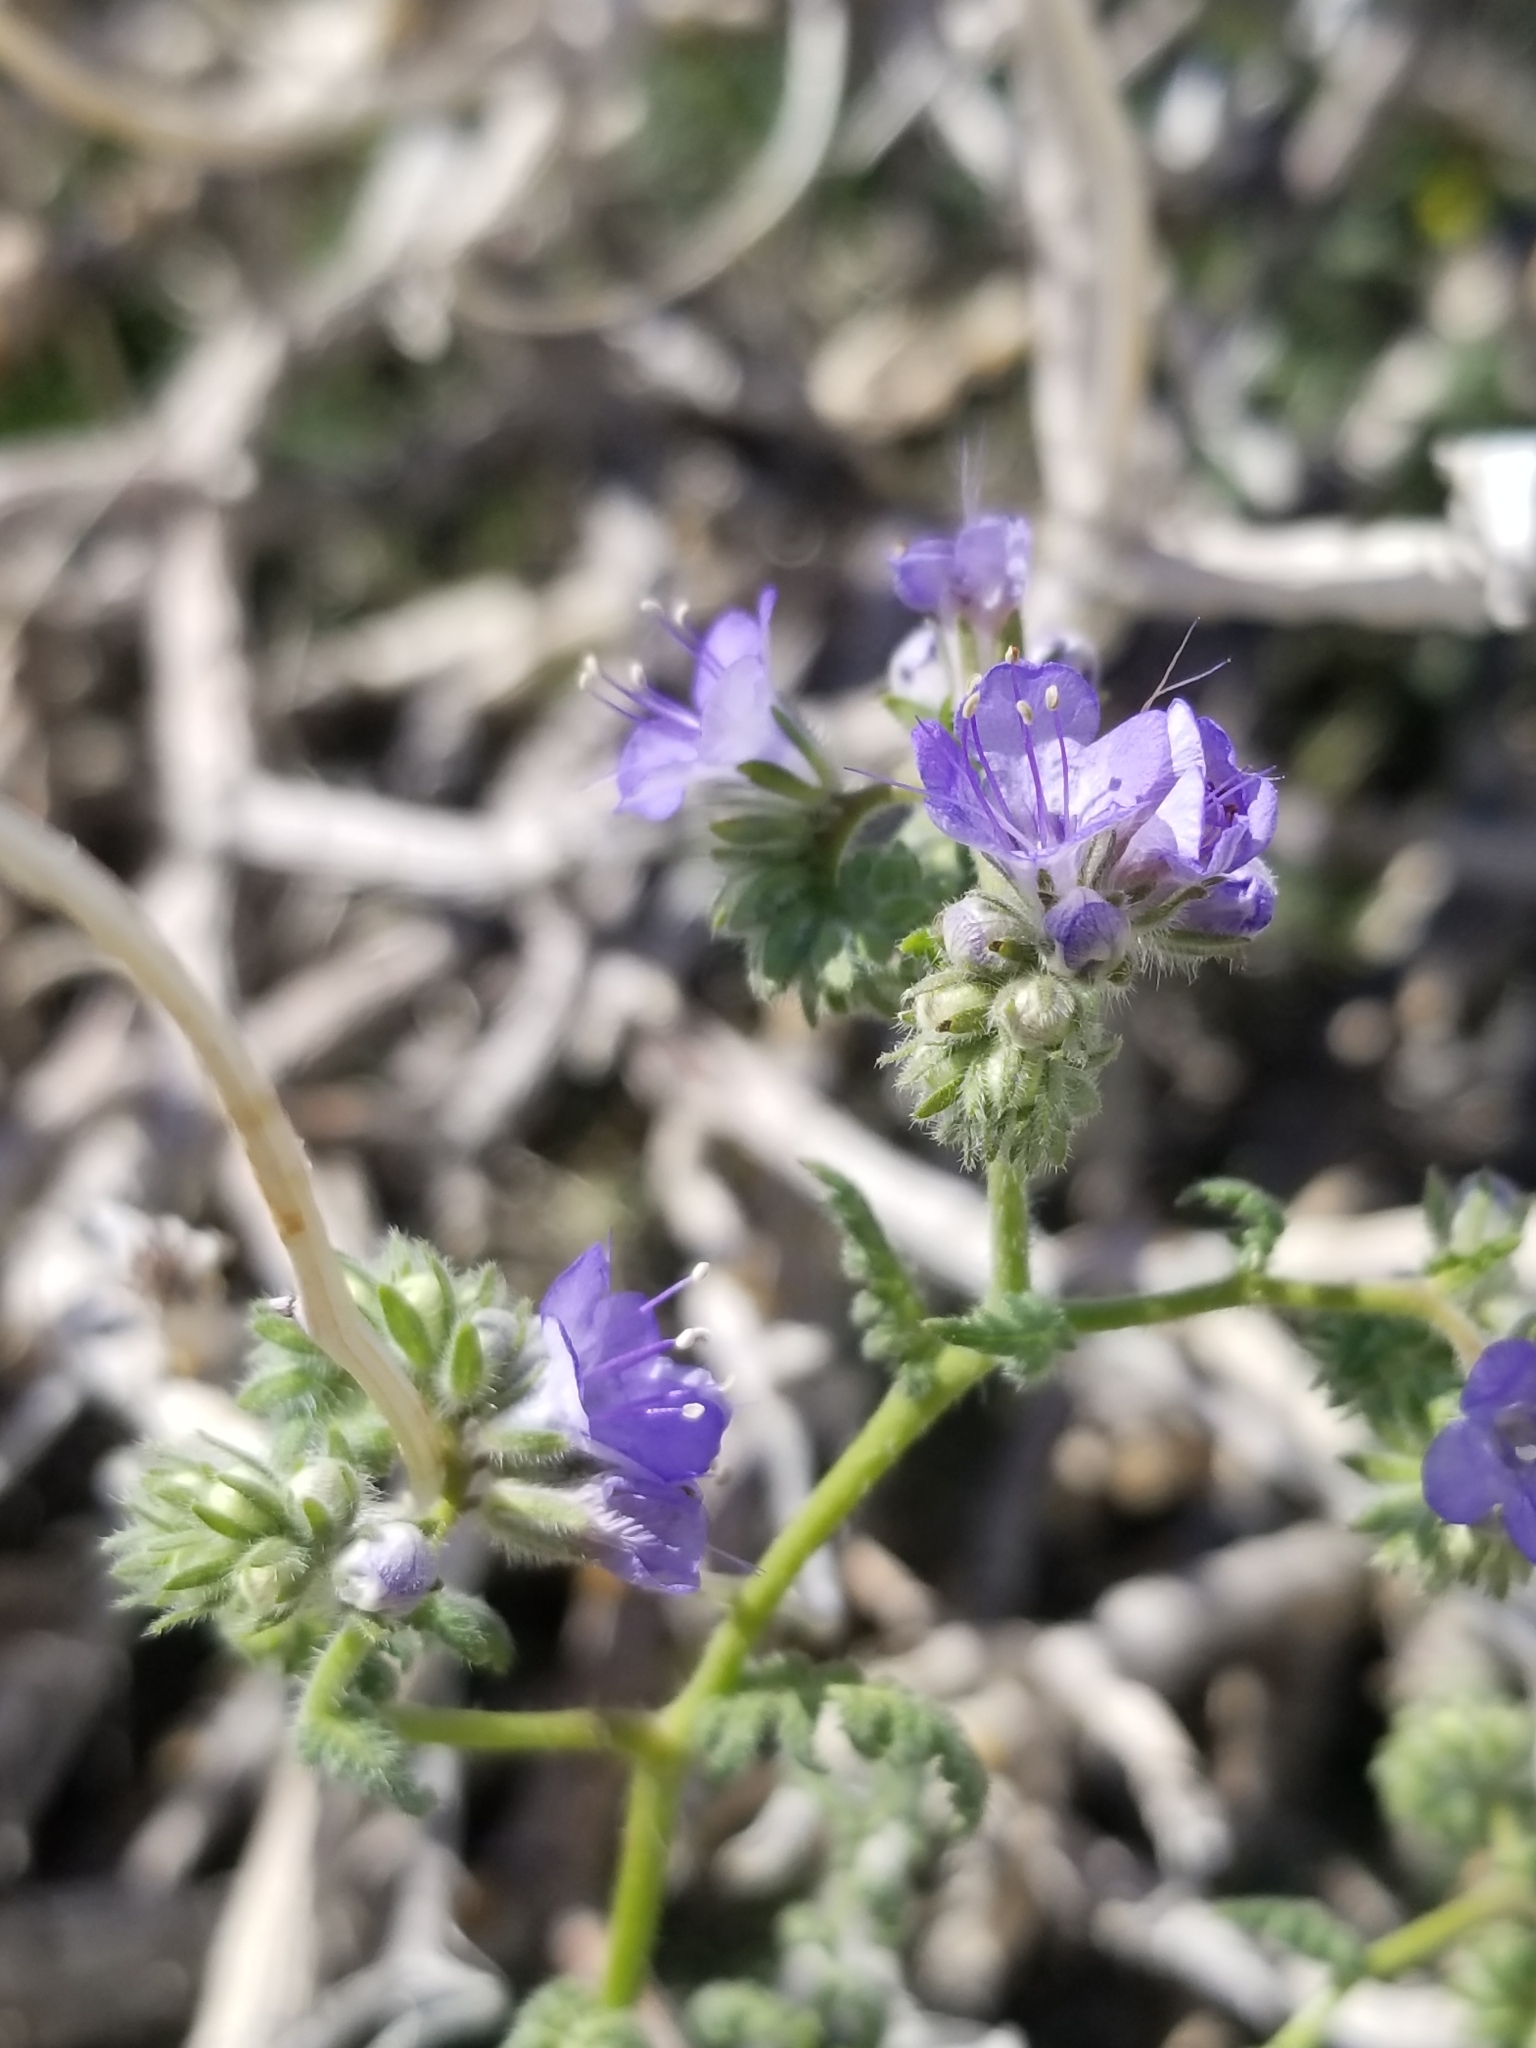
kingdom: Plantae
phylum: Tracheophyta
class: Magnoliopsida
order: Boraginales
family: Hydrophyllaceae
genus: Phacelia
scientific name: Phacelia distans
